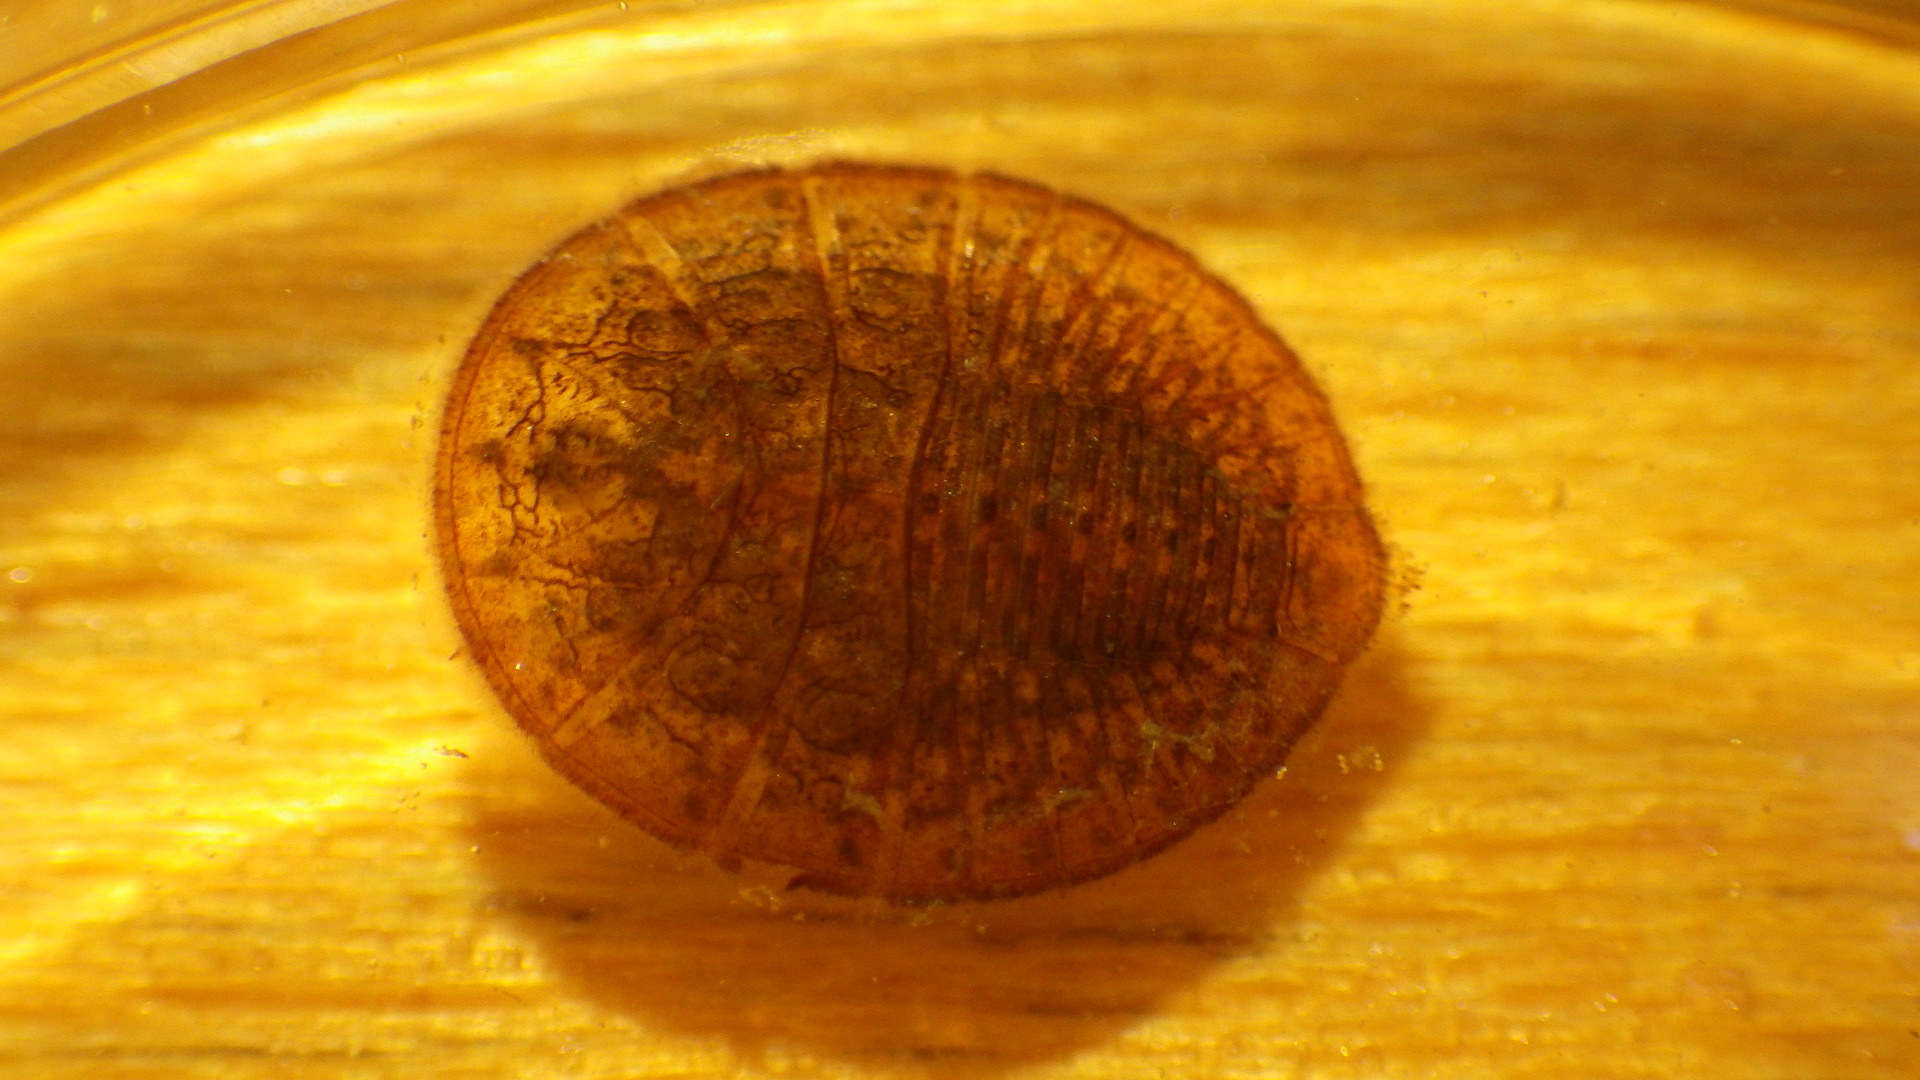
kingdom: Animalia
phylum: Arthropoda
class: Insecta
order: Coleoptera
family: Psephenidae
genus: Psephenus
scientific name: Psephenus herricki
